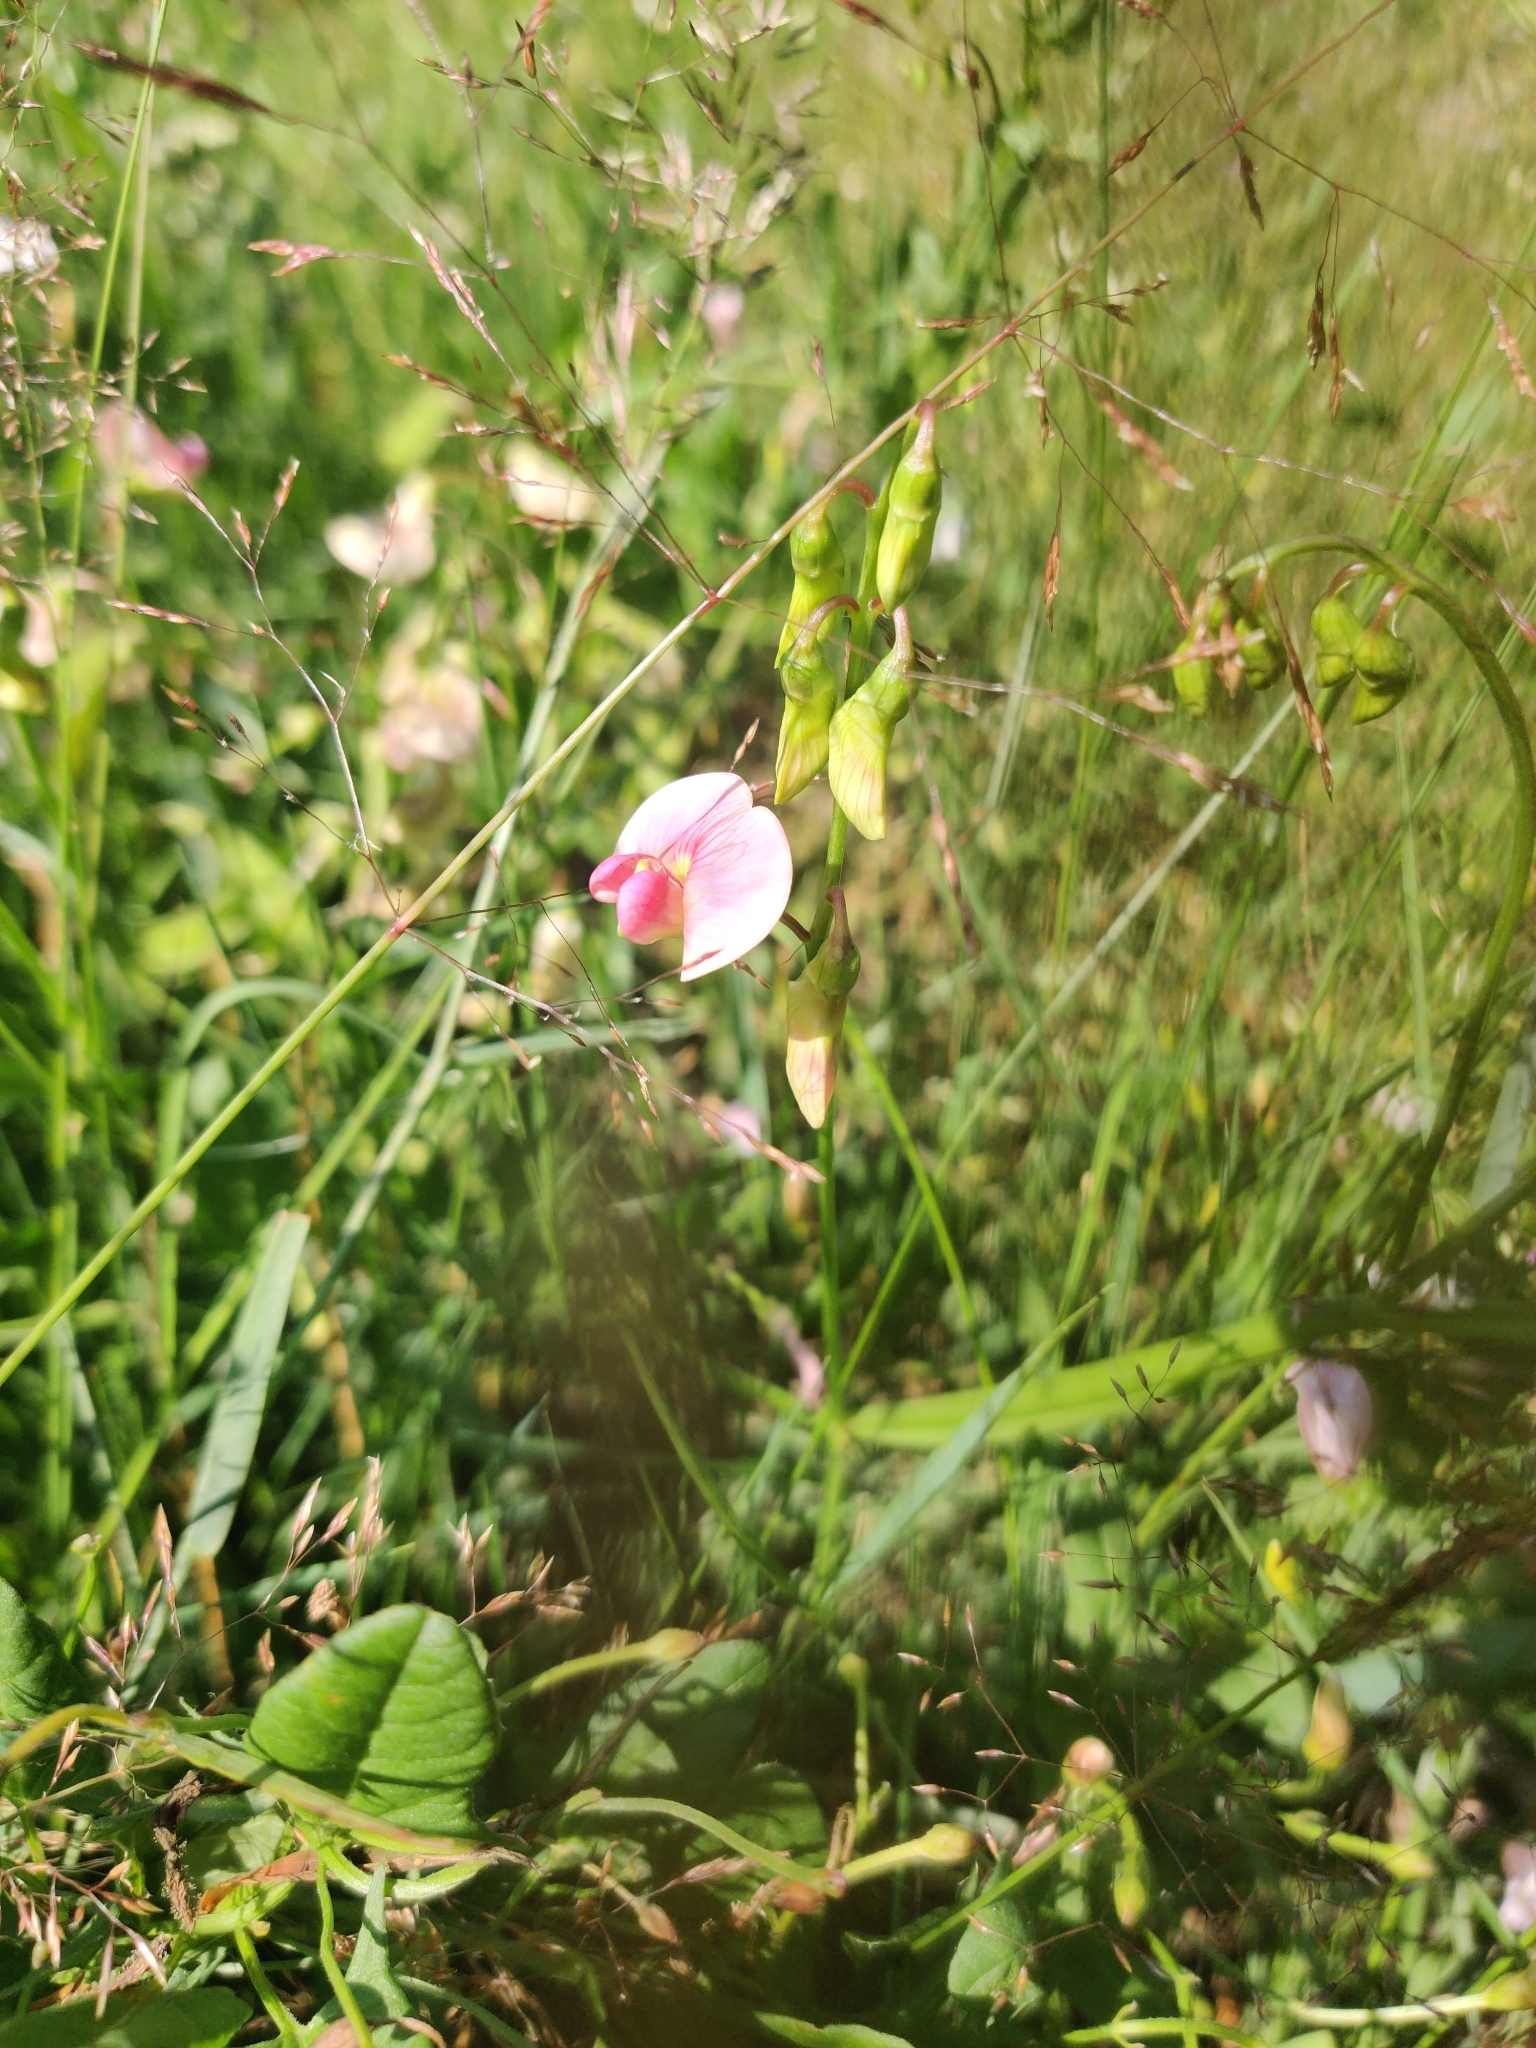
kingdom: Plantae
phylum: Tracheophyta
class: Magnoliopsida
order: Fabales
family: Fabaceae
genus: Lathyrus
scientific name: Lathyrus sylvestris
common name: Flat pea
